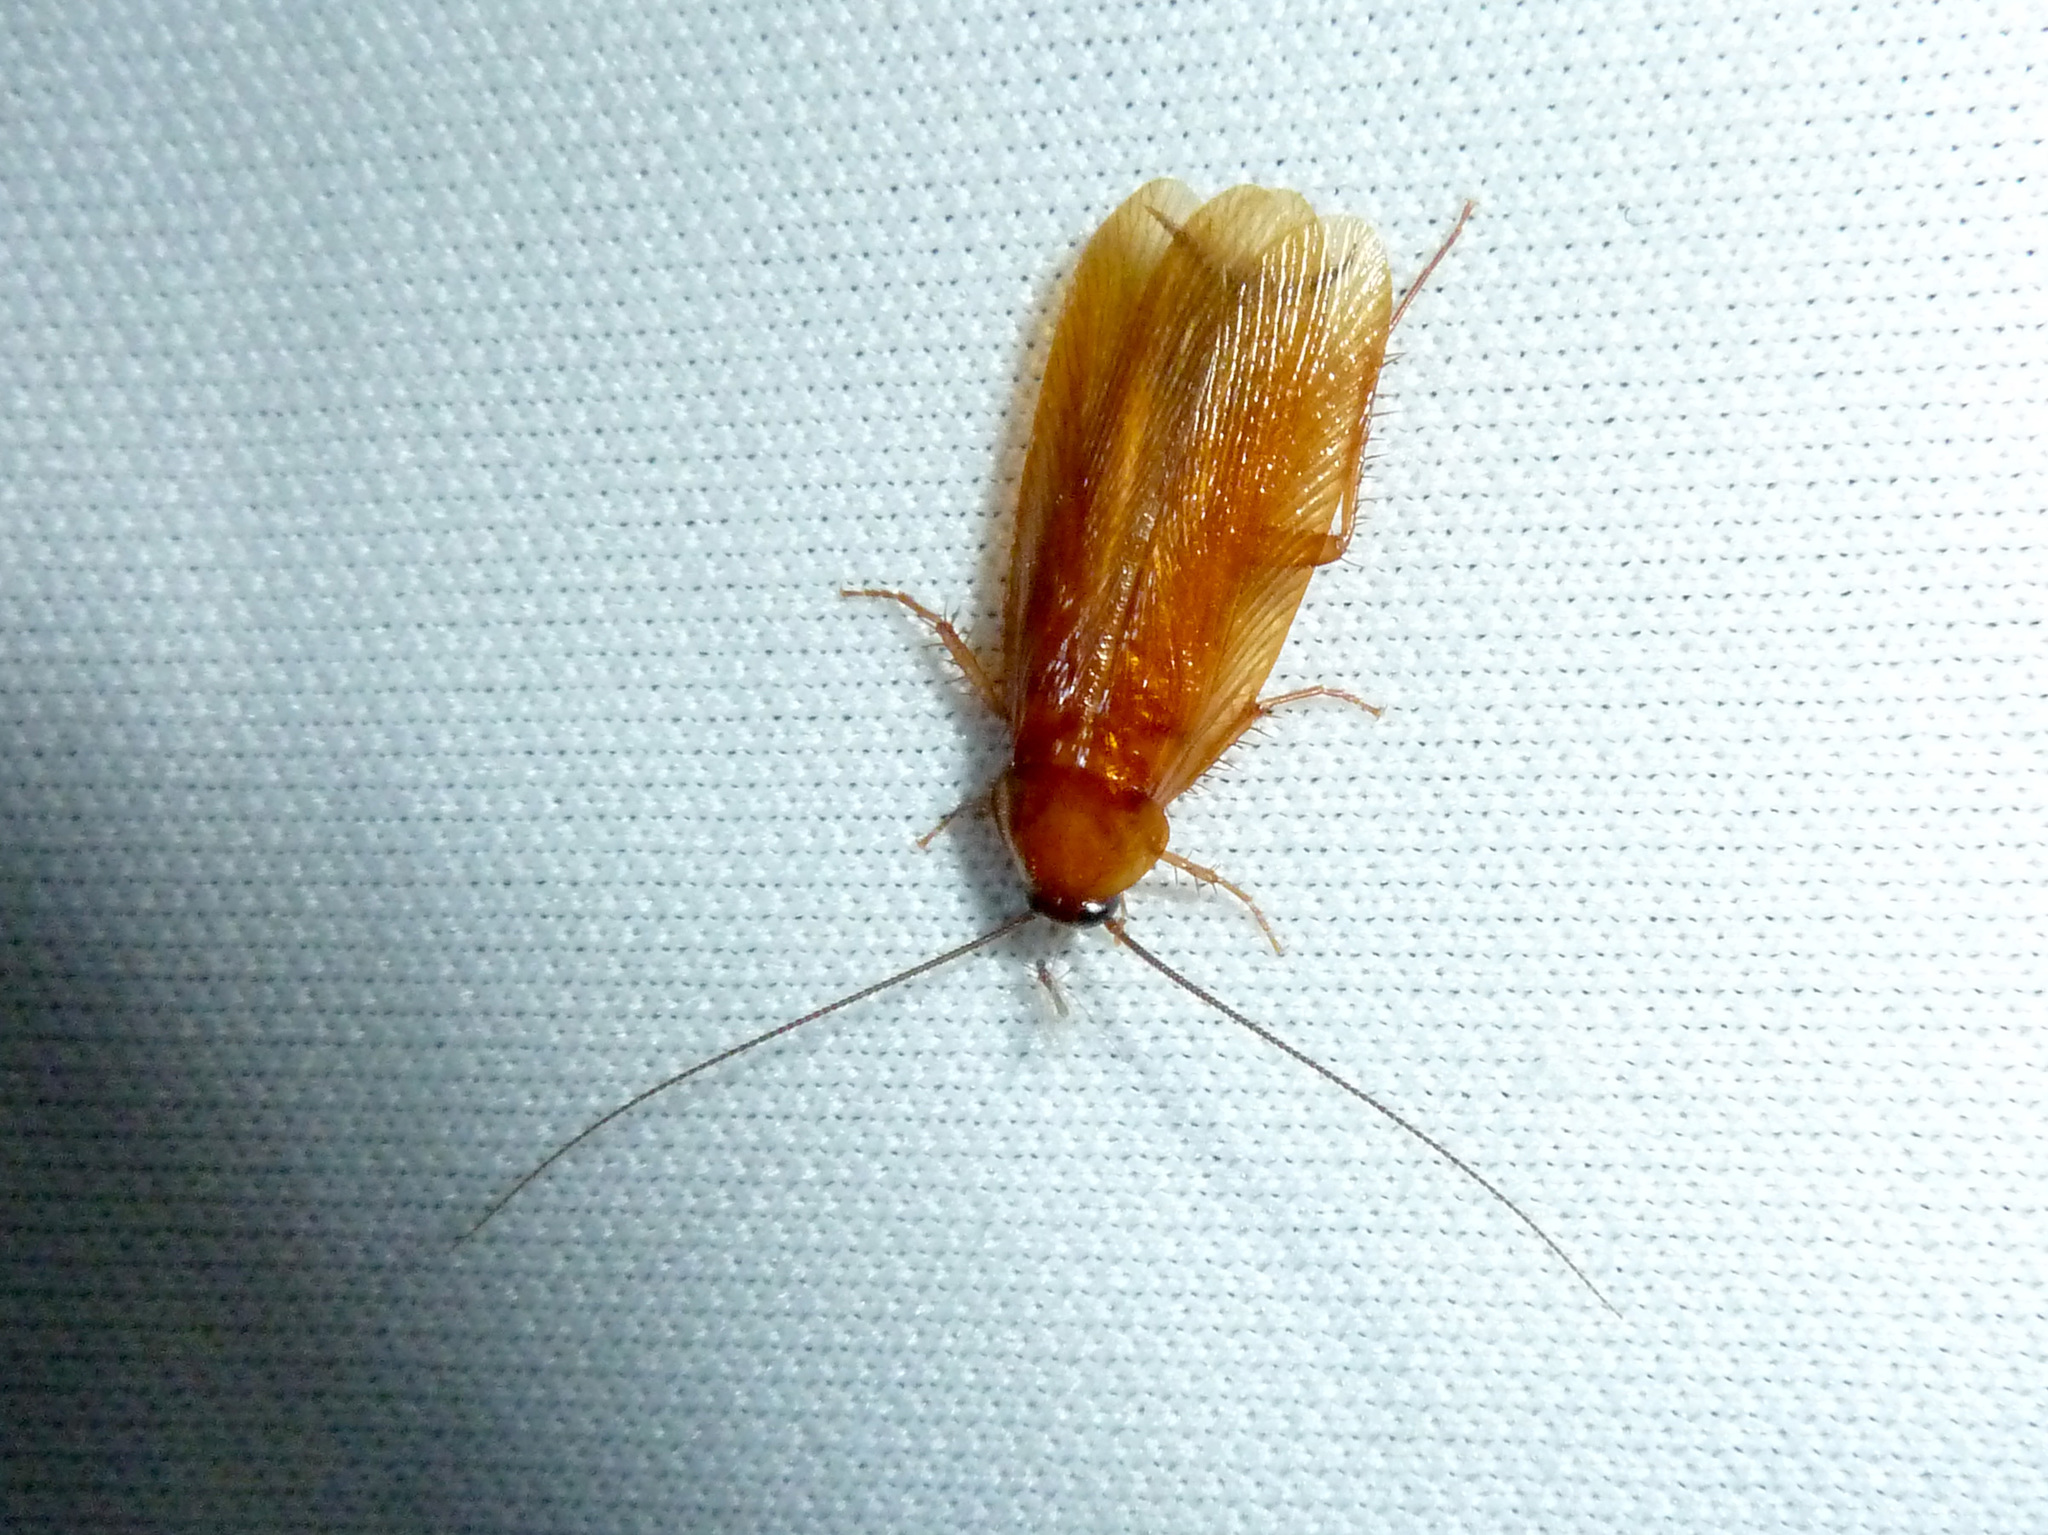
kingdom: Animalia
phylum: Arthropoda
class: Insecta
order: Blattodea
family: Ectobiidae
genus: Parcoblatta
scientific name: Parcoblatta americana
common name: Western wood cockroach
